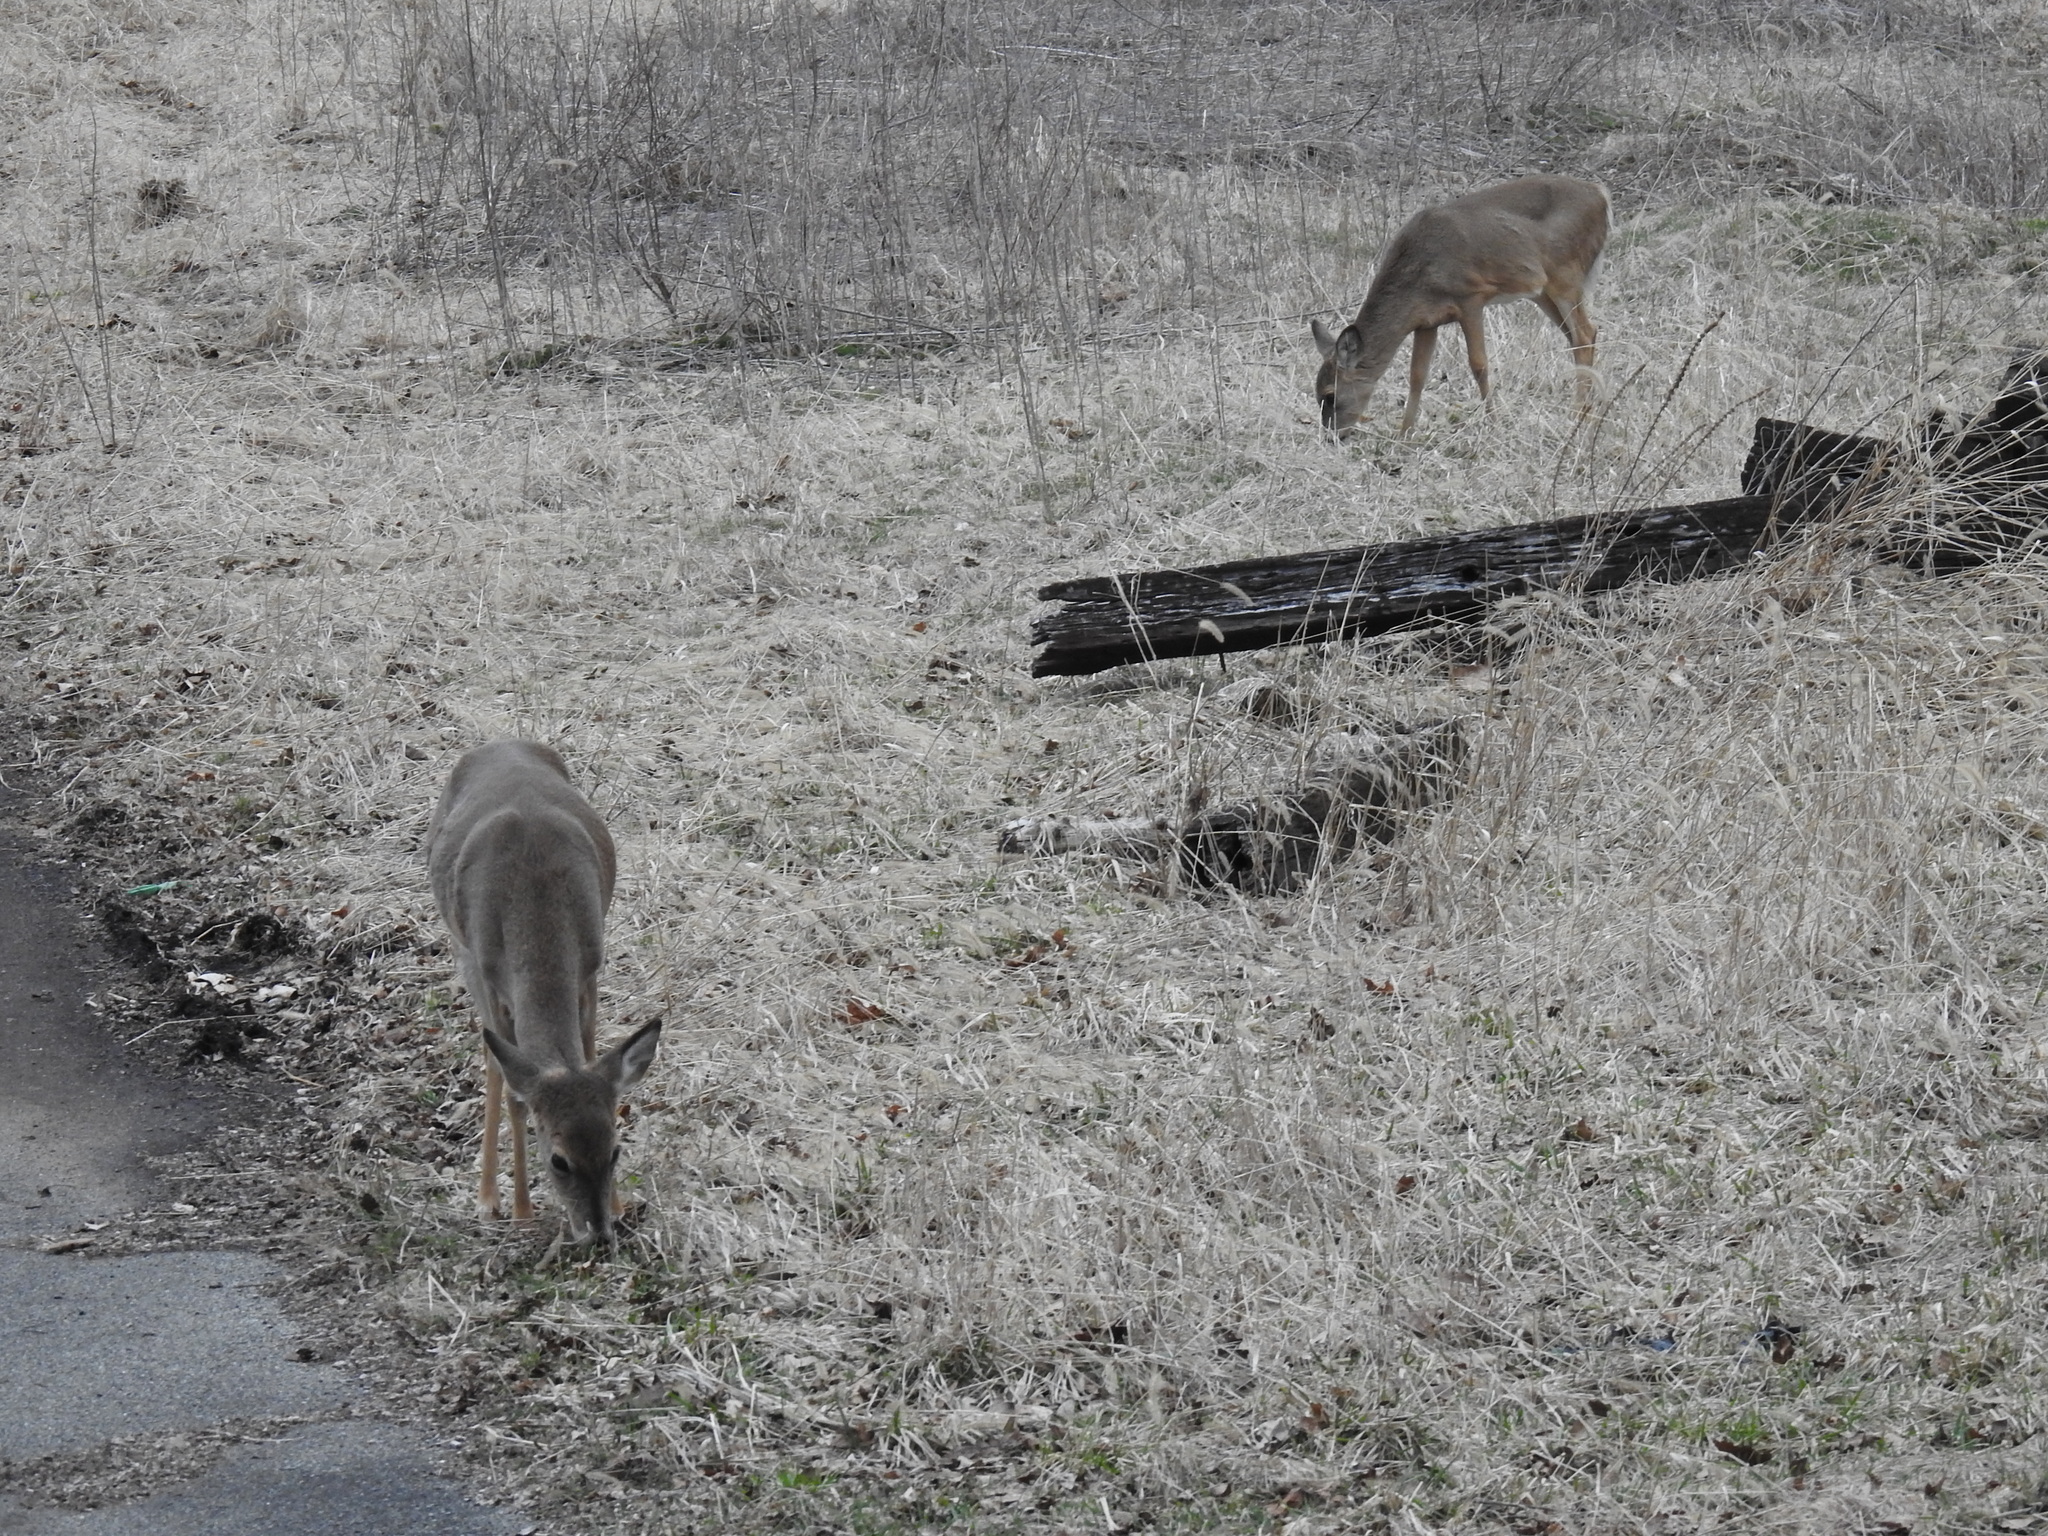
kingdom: Animalia
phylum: Chordata
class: Mammalia
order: Artiodactyla
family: Cervidae
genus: Odocoileus
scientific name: Odocoileus virginianus
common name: White-tailed deer
